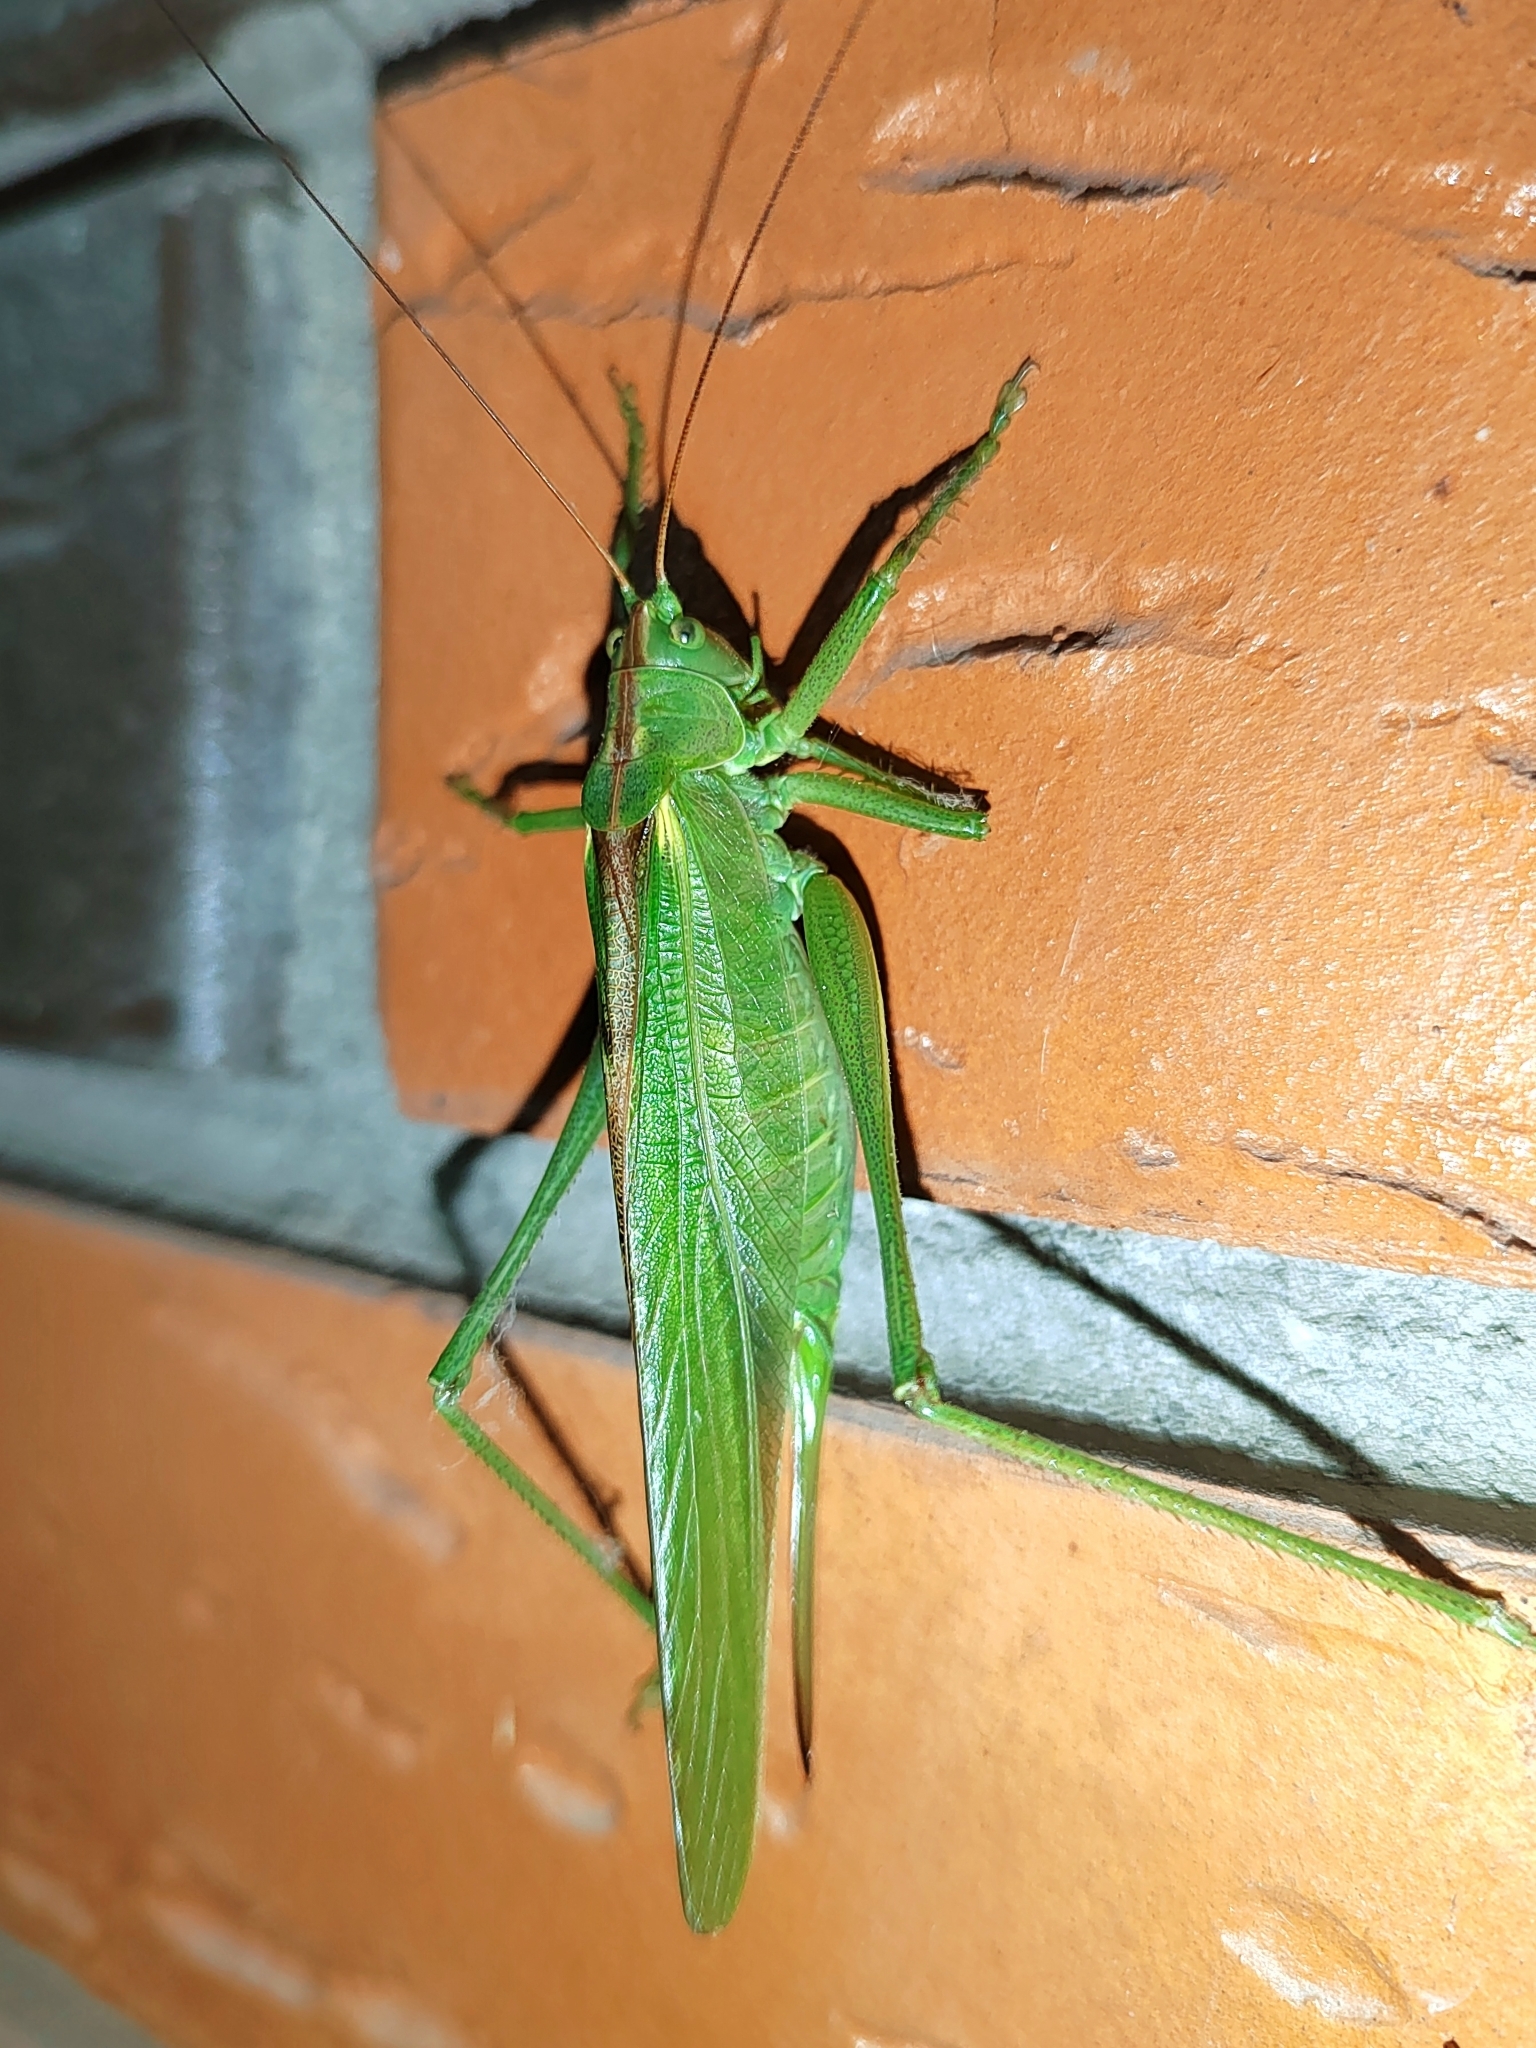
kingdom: Animalia
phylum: Arthropoda
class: Insecta
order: Orthoptera
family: Tettigoniidae
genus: Tettigonia
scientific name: Tettigonia viridissima
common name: Great green bush-cricket
